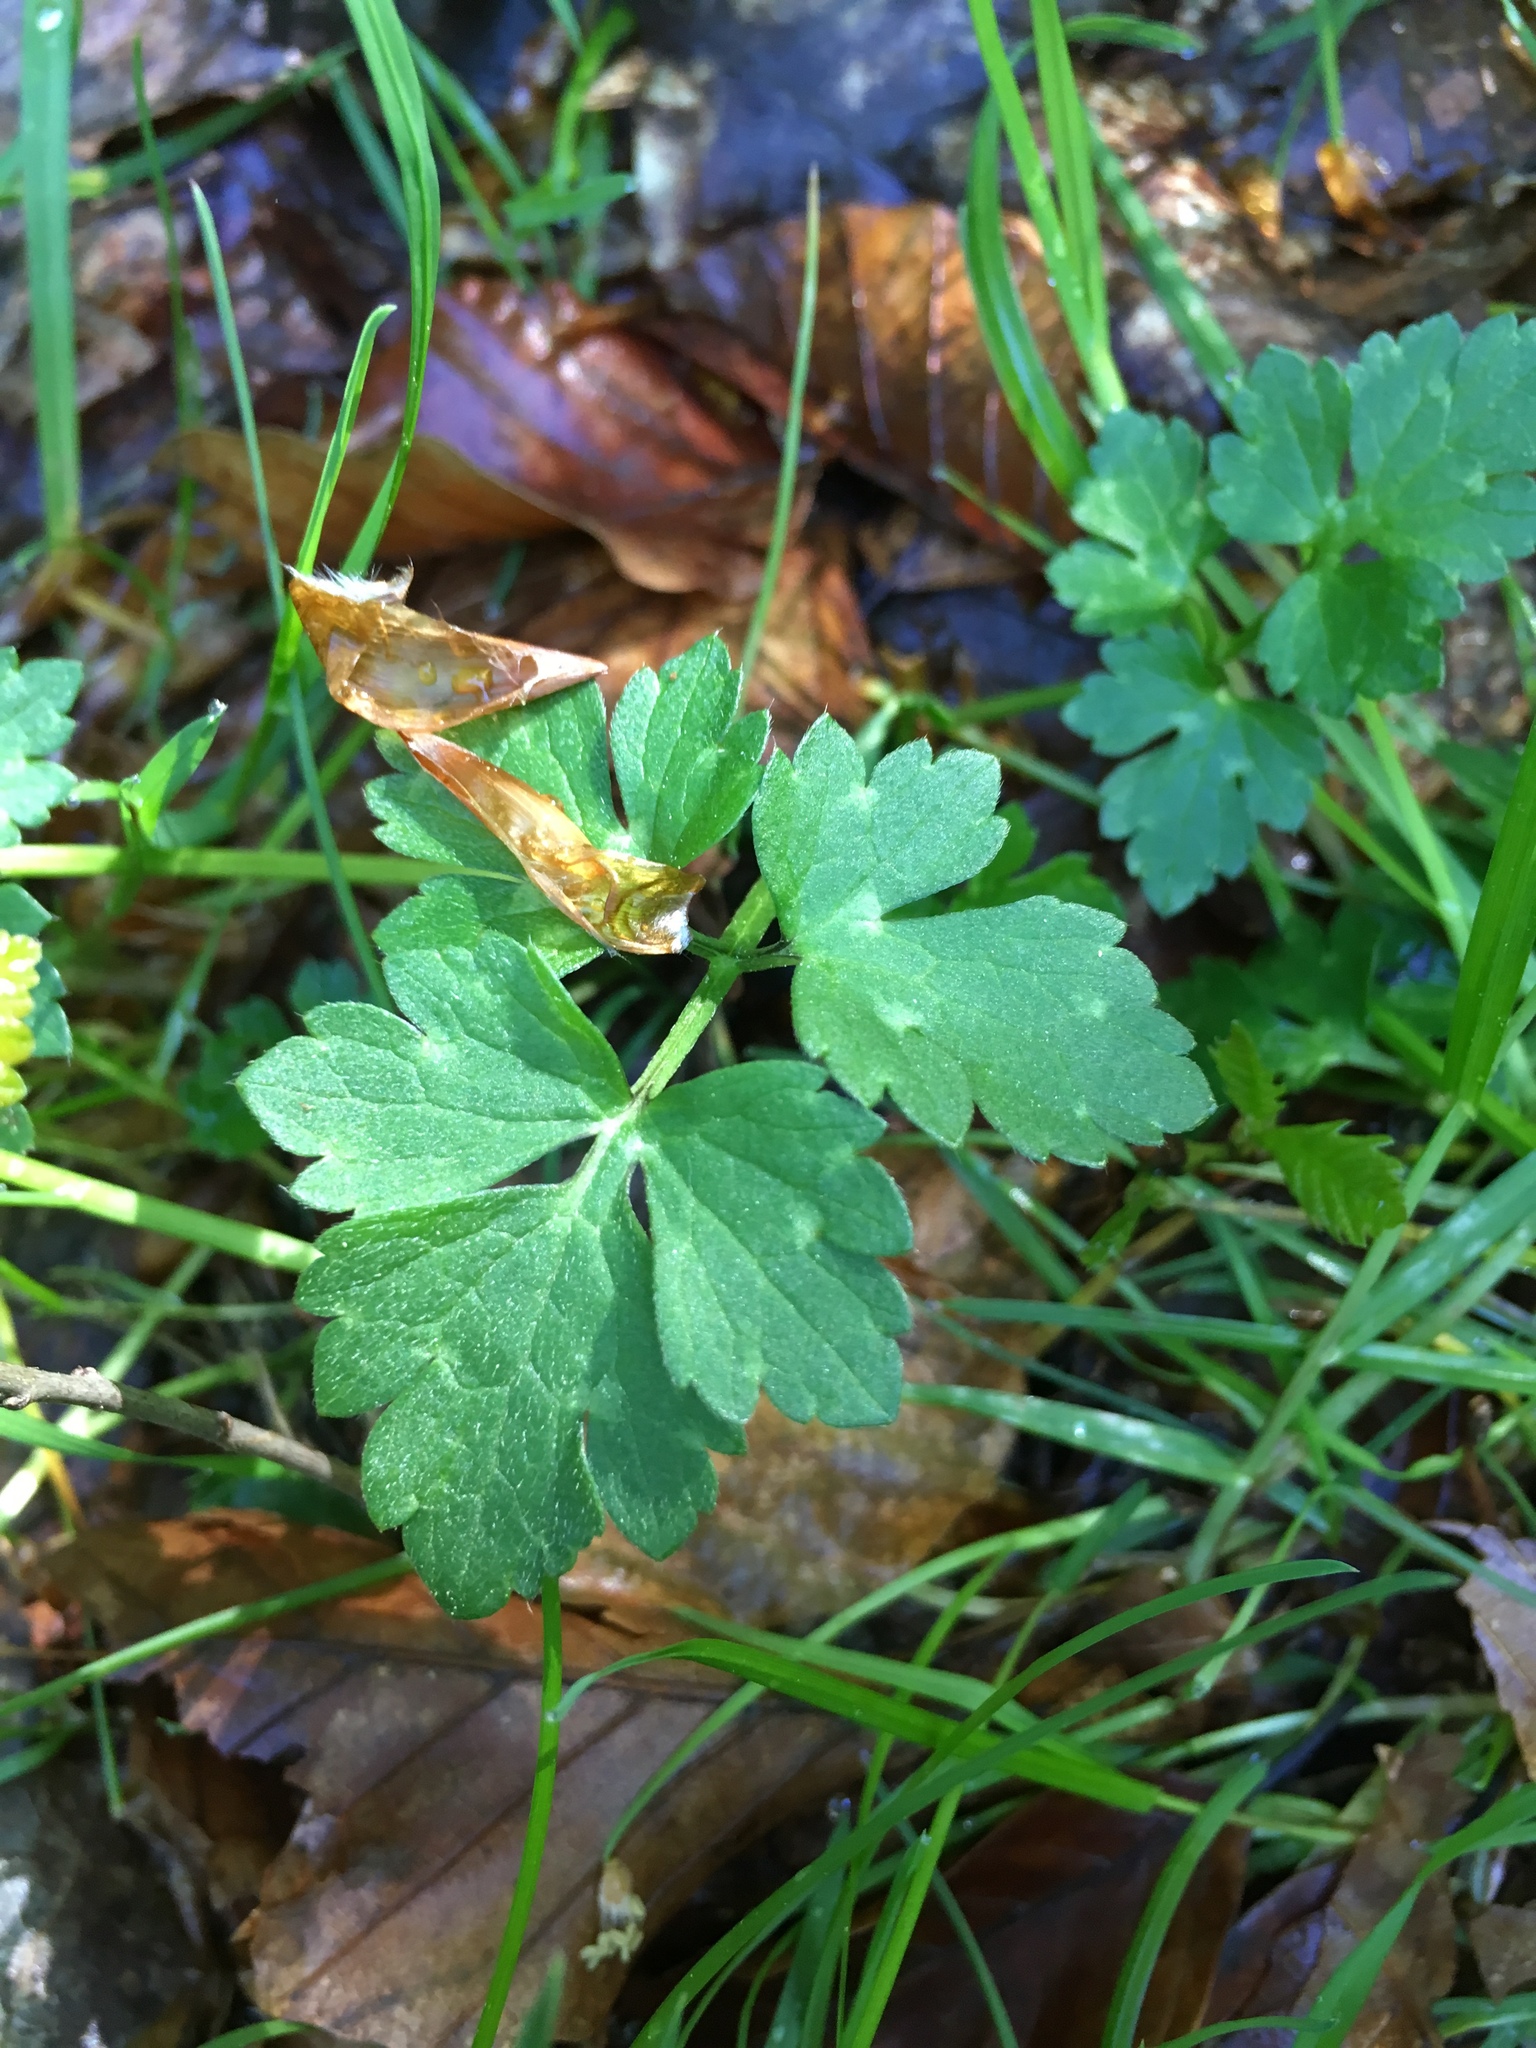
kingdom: Plantae
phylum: Tracheophyta
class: Magnoliopsida
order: Ranunculales
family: Ranunculaceae
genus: Ranunculus
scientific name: Ranunculus repens
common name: Creeping buttercup
